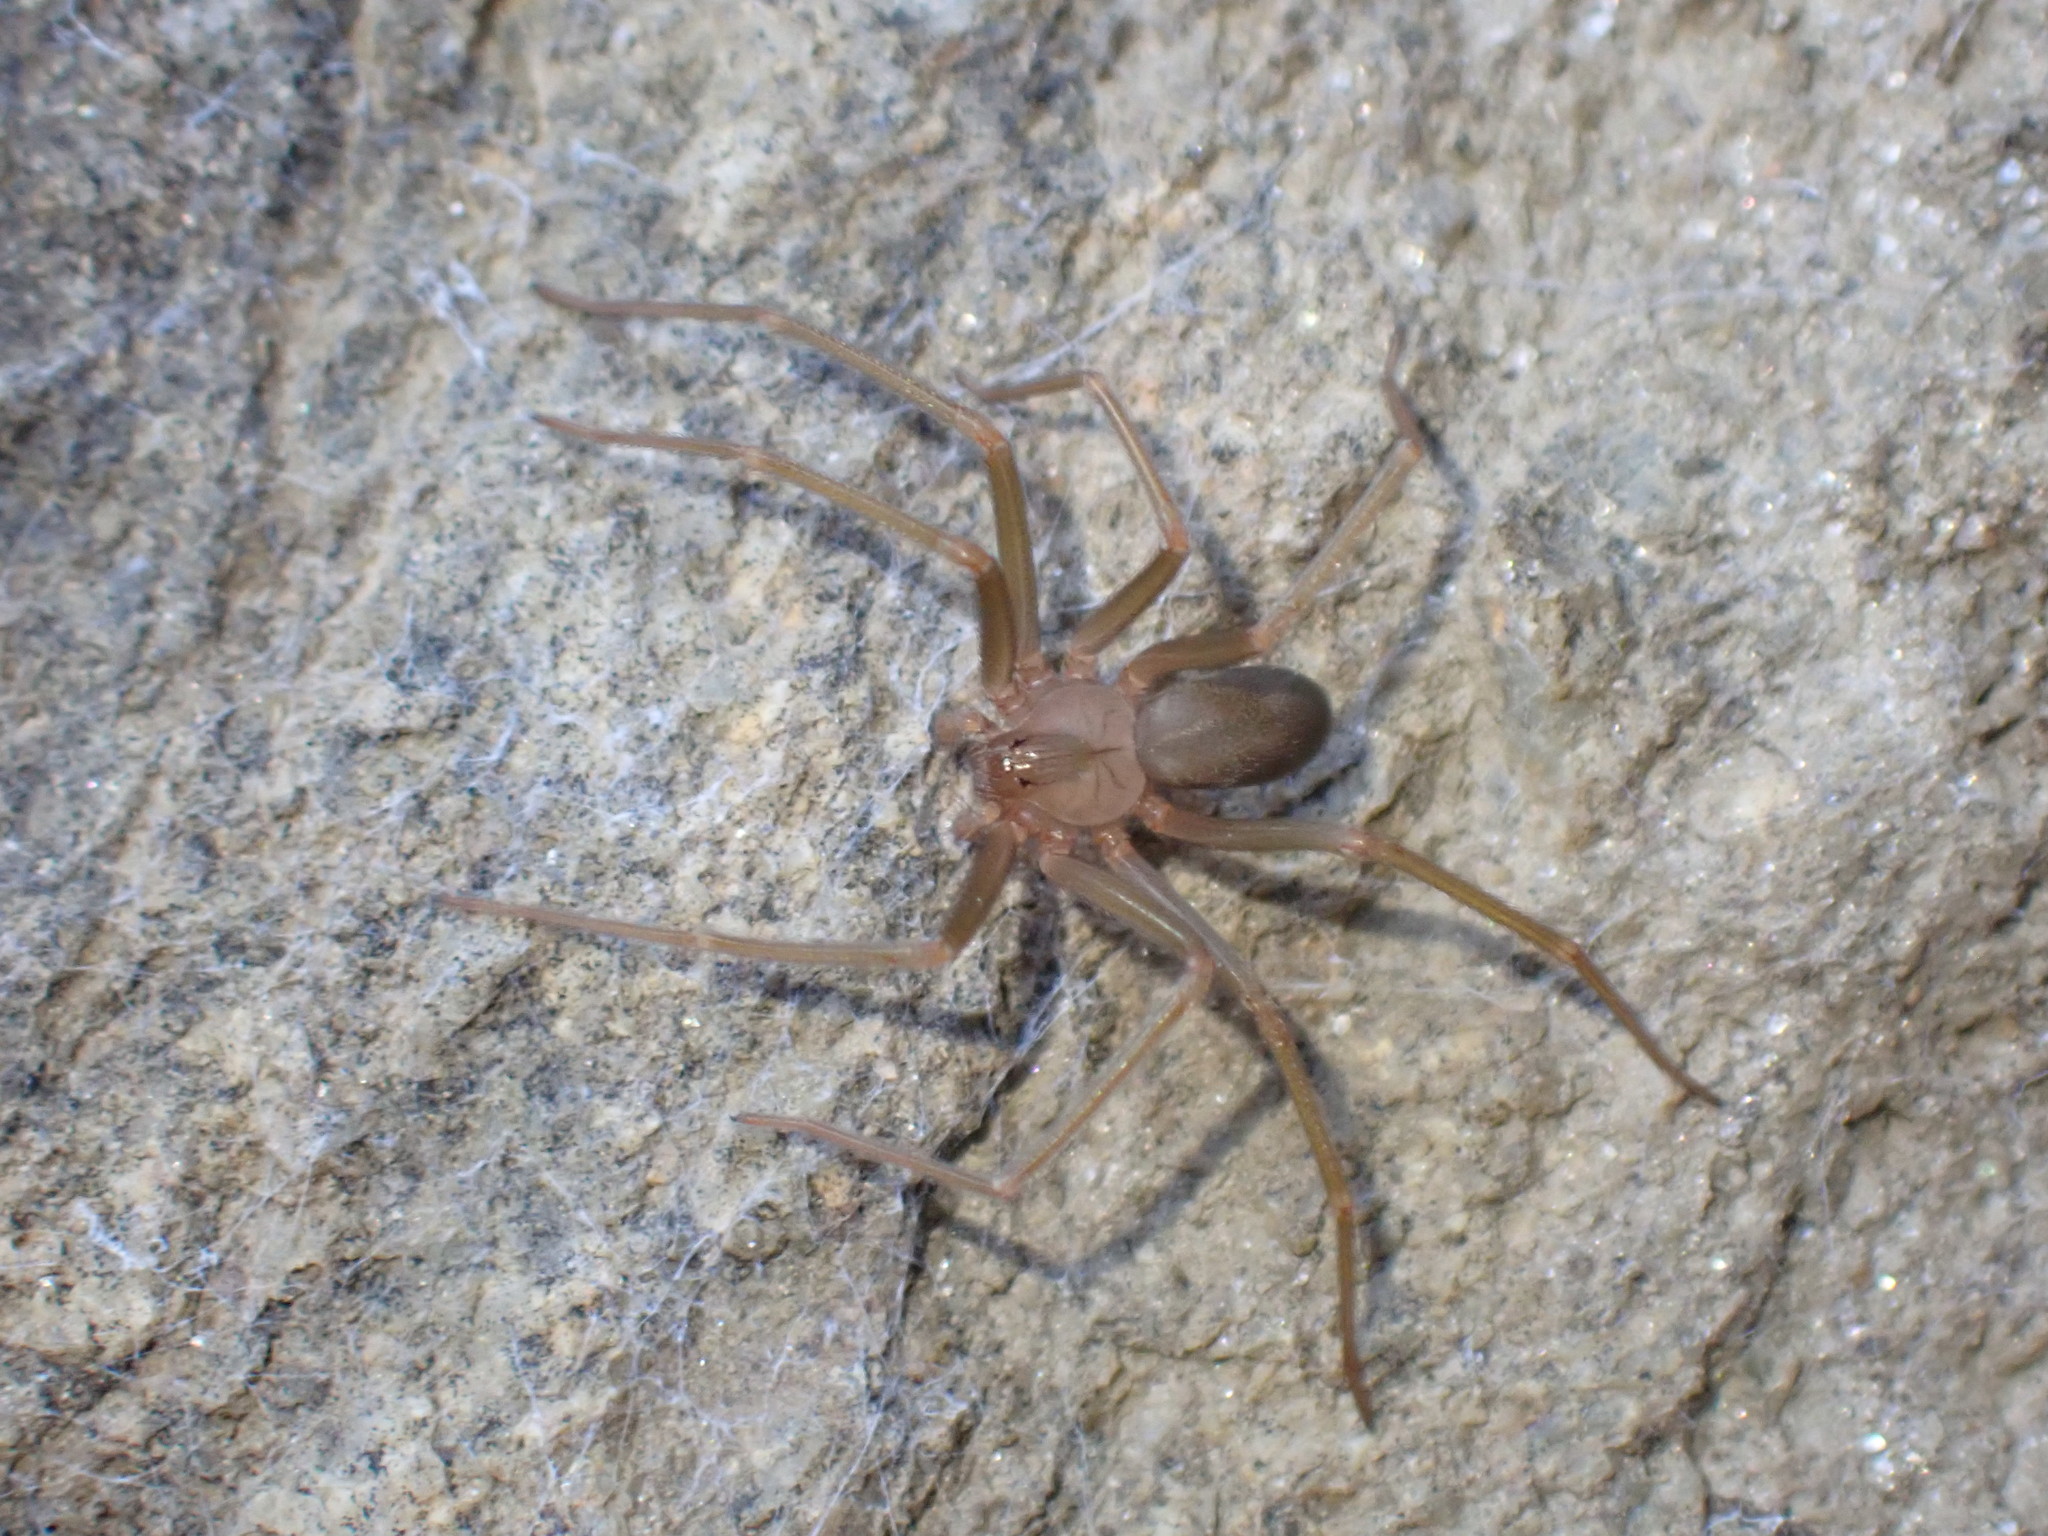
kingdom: Animalia
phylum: Arthropoda
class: Arachnida
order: Araneae
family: Sicariidae
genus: Loxosceles
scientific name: Loxosceles rufescens
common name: Mediterranean recluse spider
